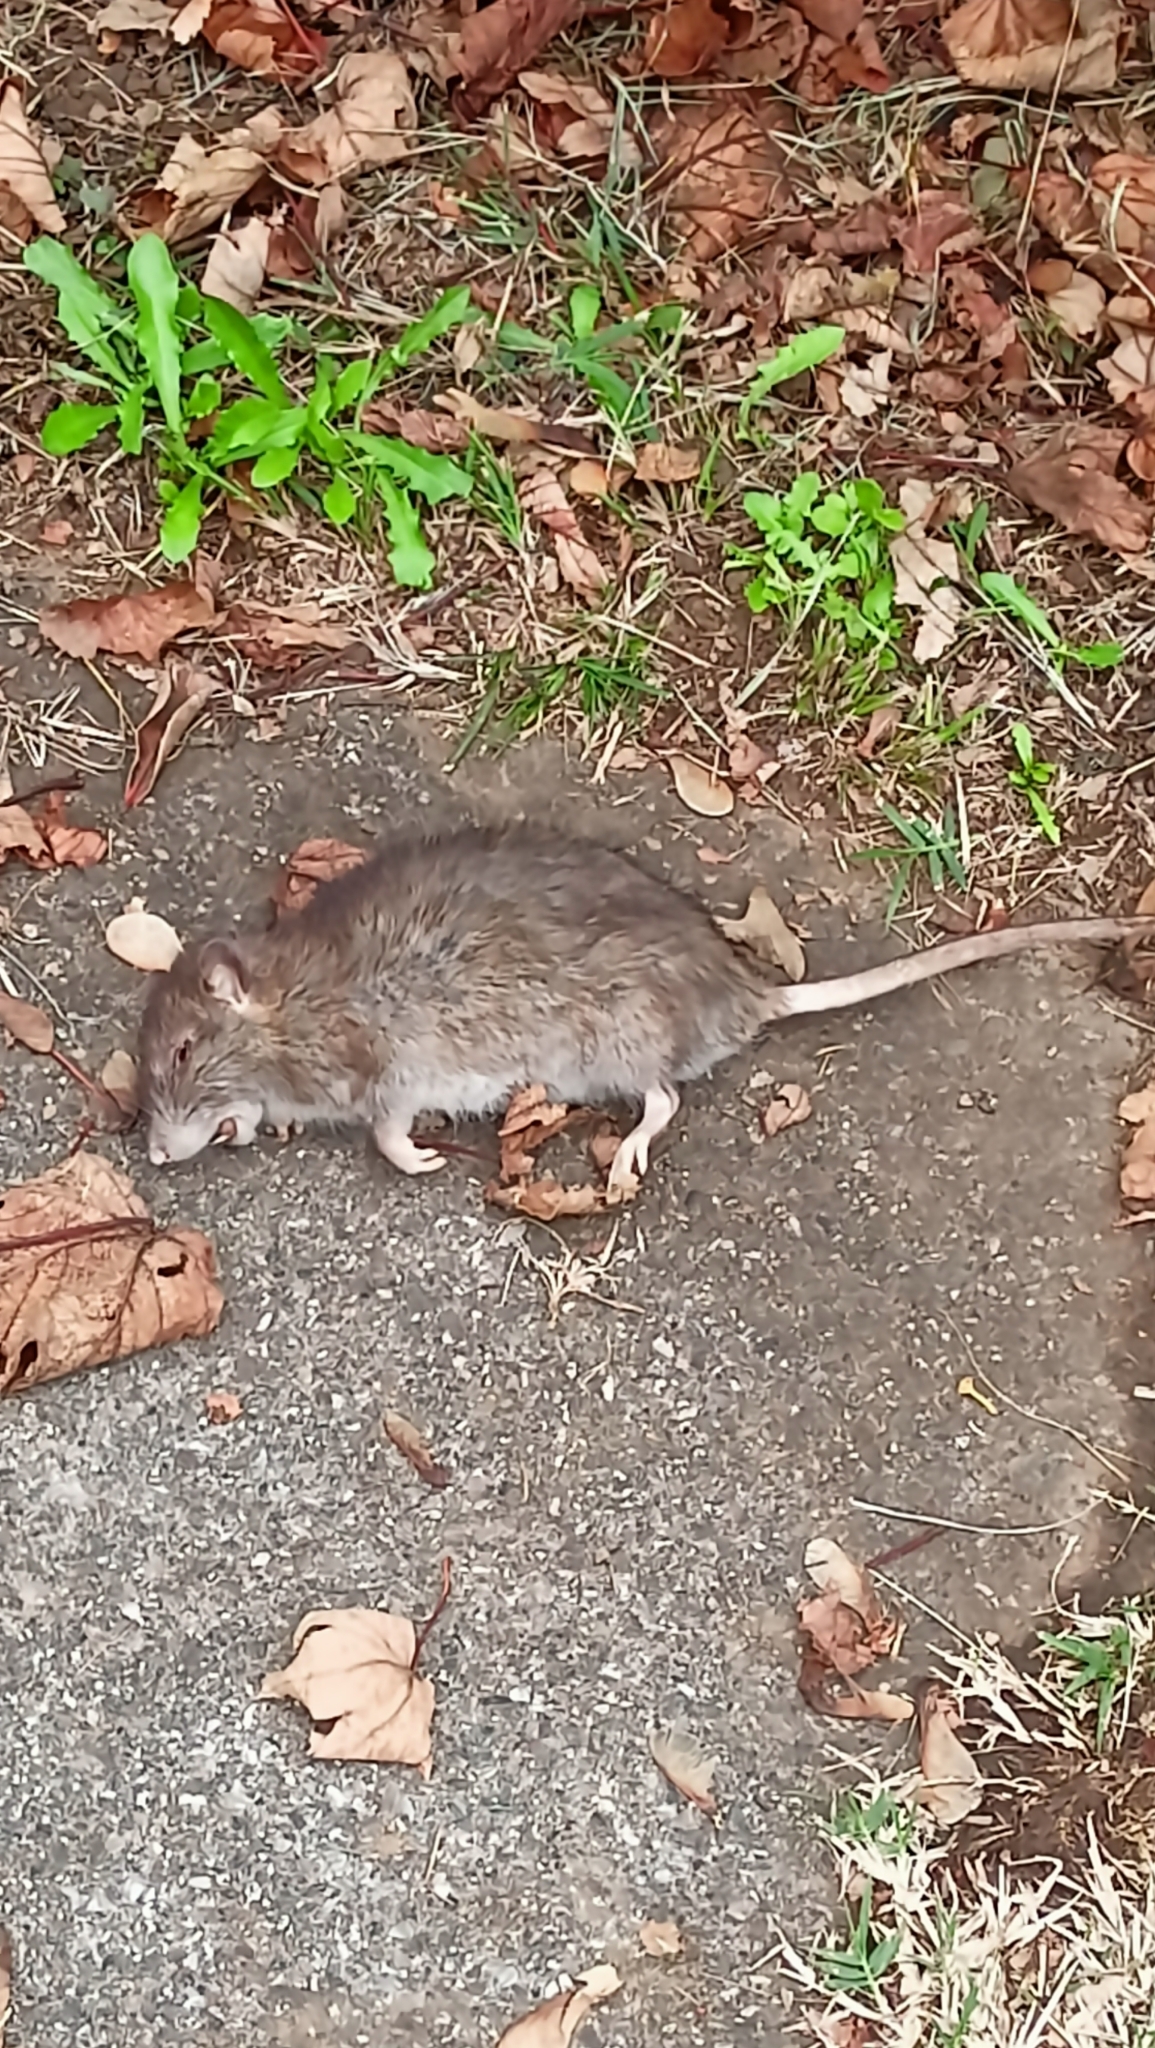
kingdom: Animalia
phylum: Chordata
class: Mammalia
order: Rodentia
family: Muridae
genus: Rattus
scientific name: Rattus norvegicus
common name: Brown rat
